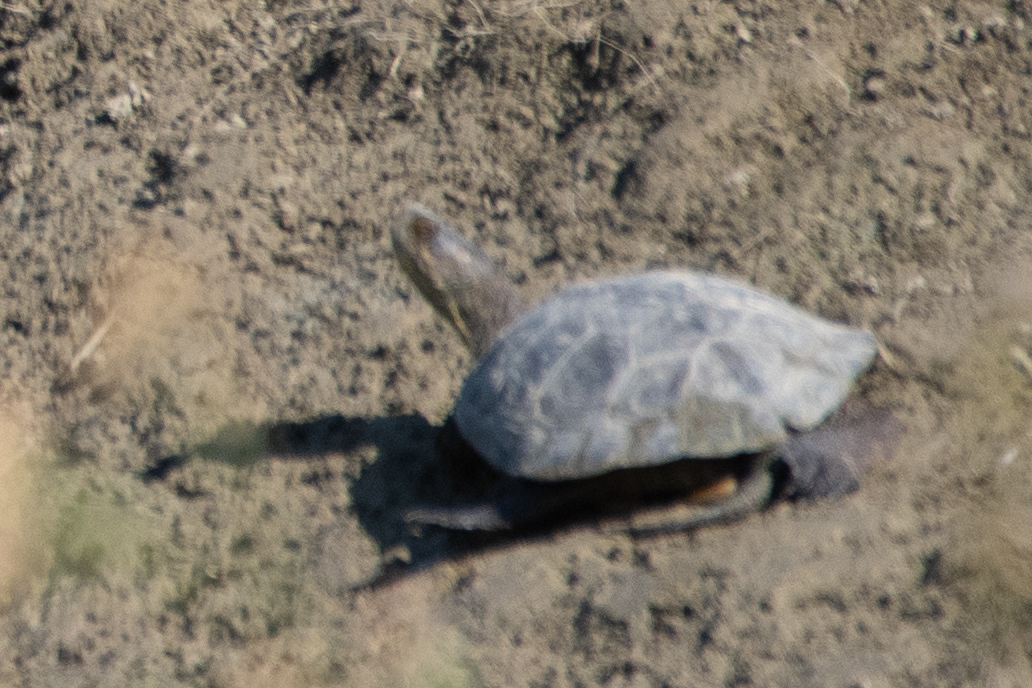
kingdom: Animalia
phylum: Chordata
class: Testudines
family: Emydidae
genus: Actinemys
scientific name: Actinemys marmorata
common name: Western pond turtle
